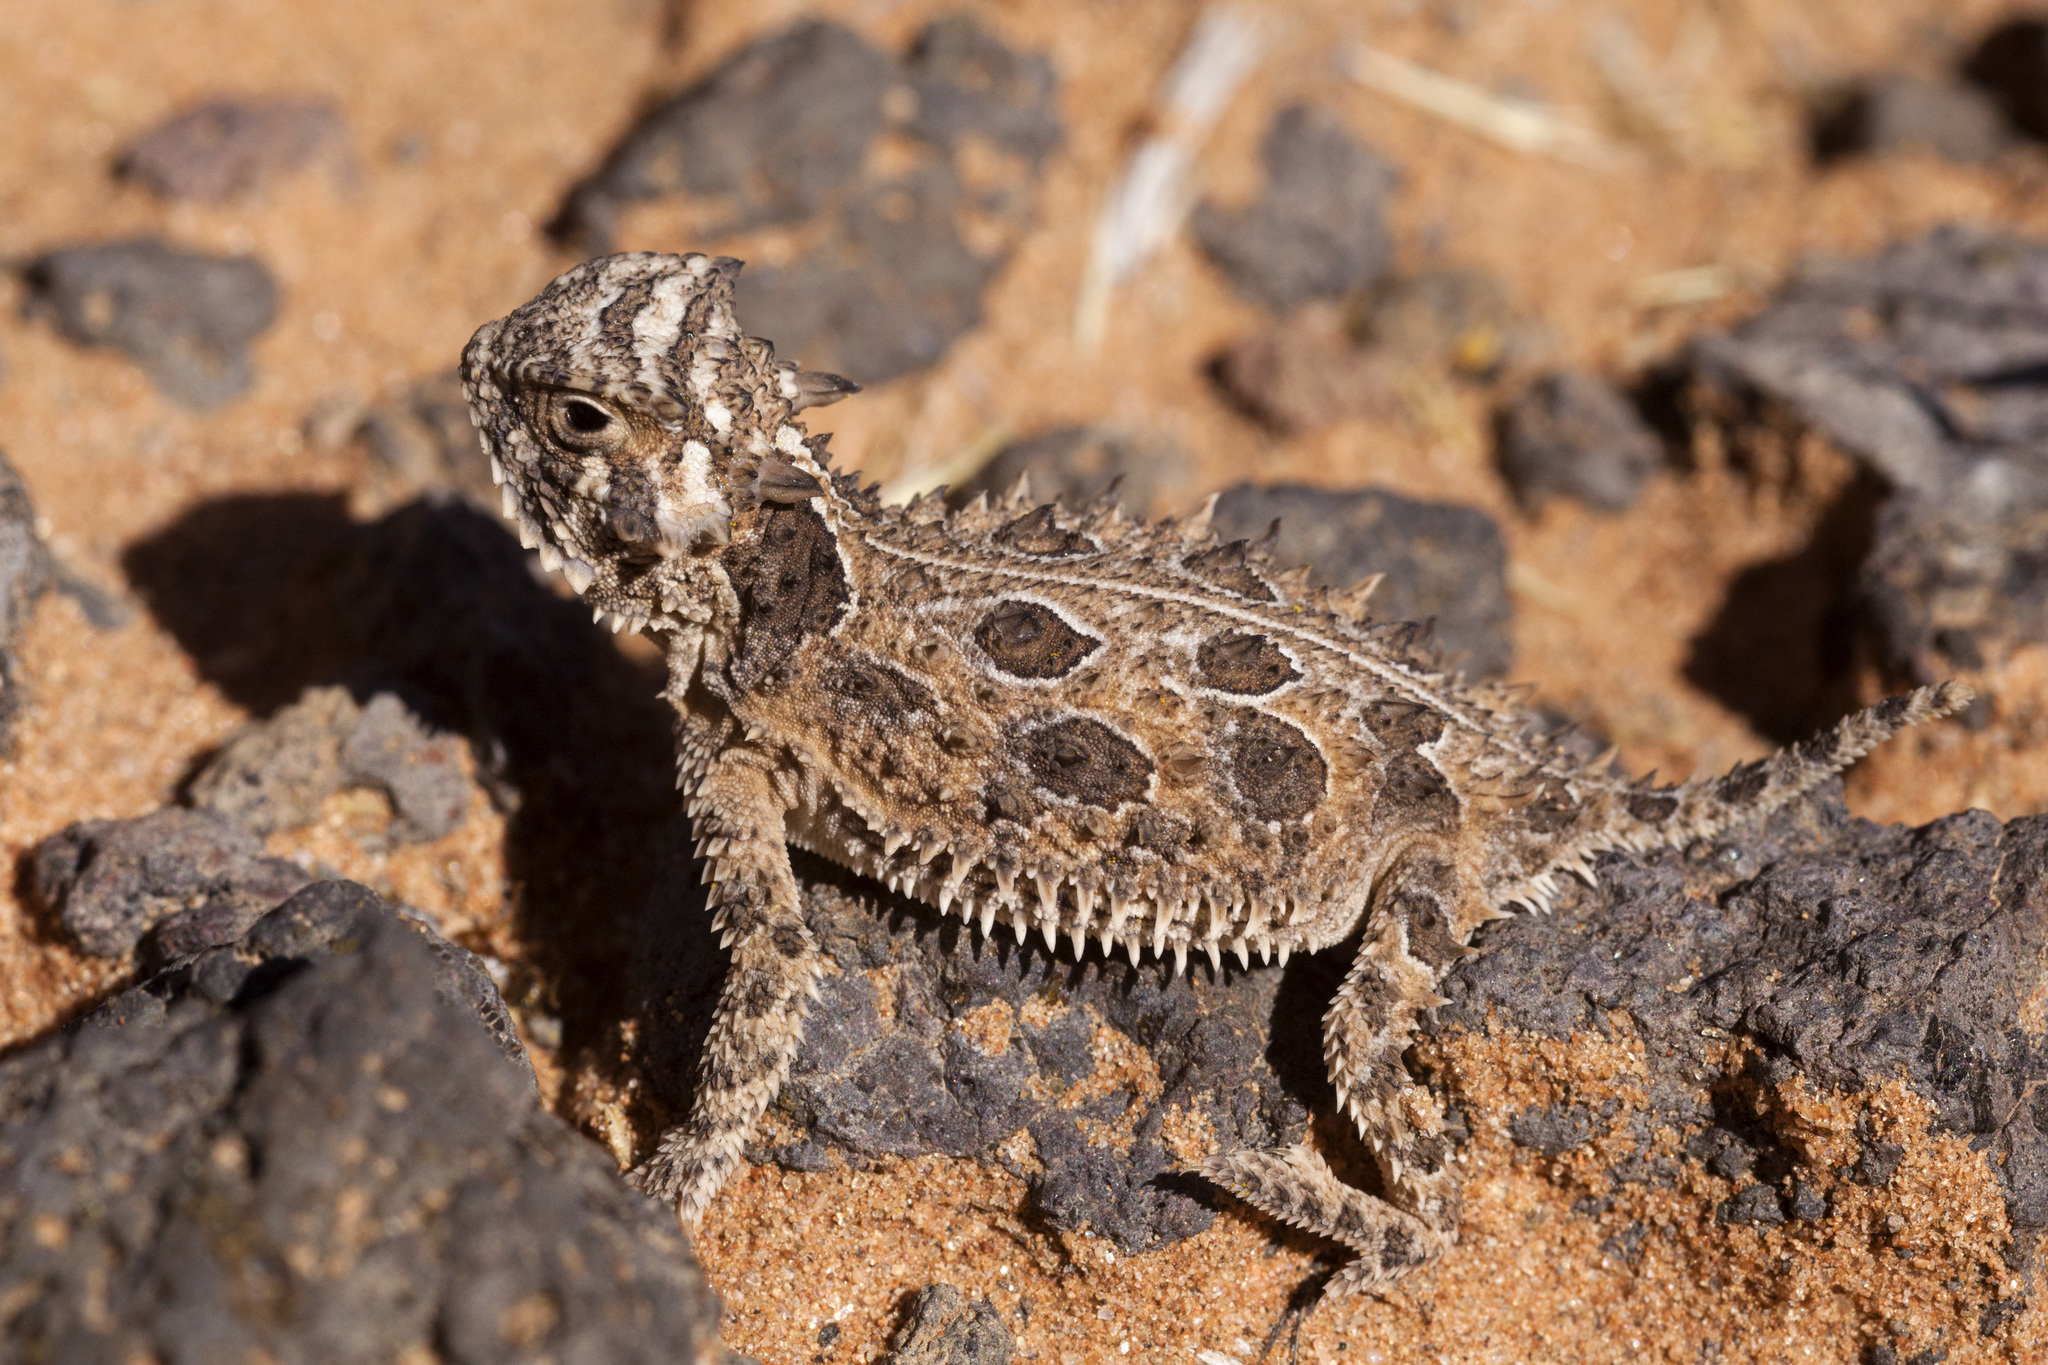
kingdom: Animalia
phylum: Chordata
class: Squamata
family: Phrynosomatidae
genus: Phrynosoma
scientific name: Phrynosoma cornutum
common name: Texas horned lizard
